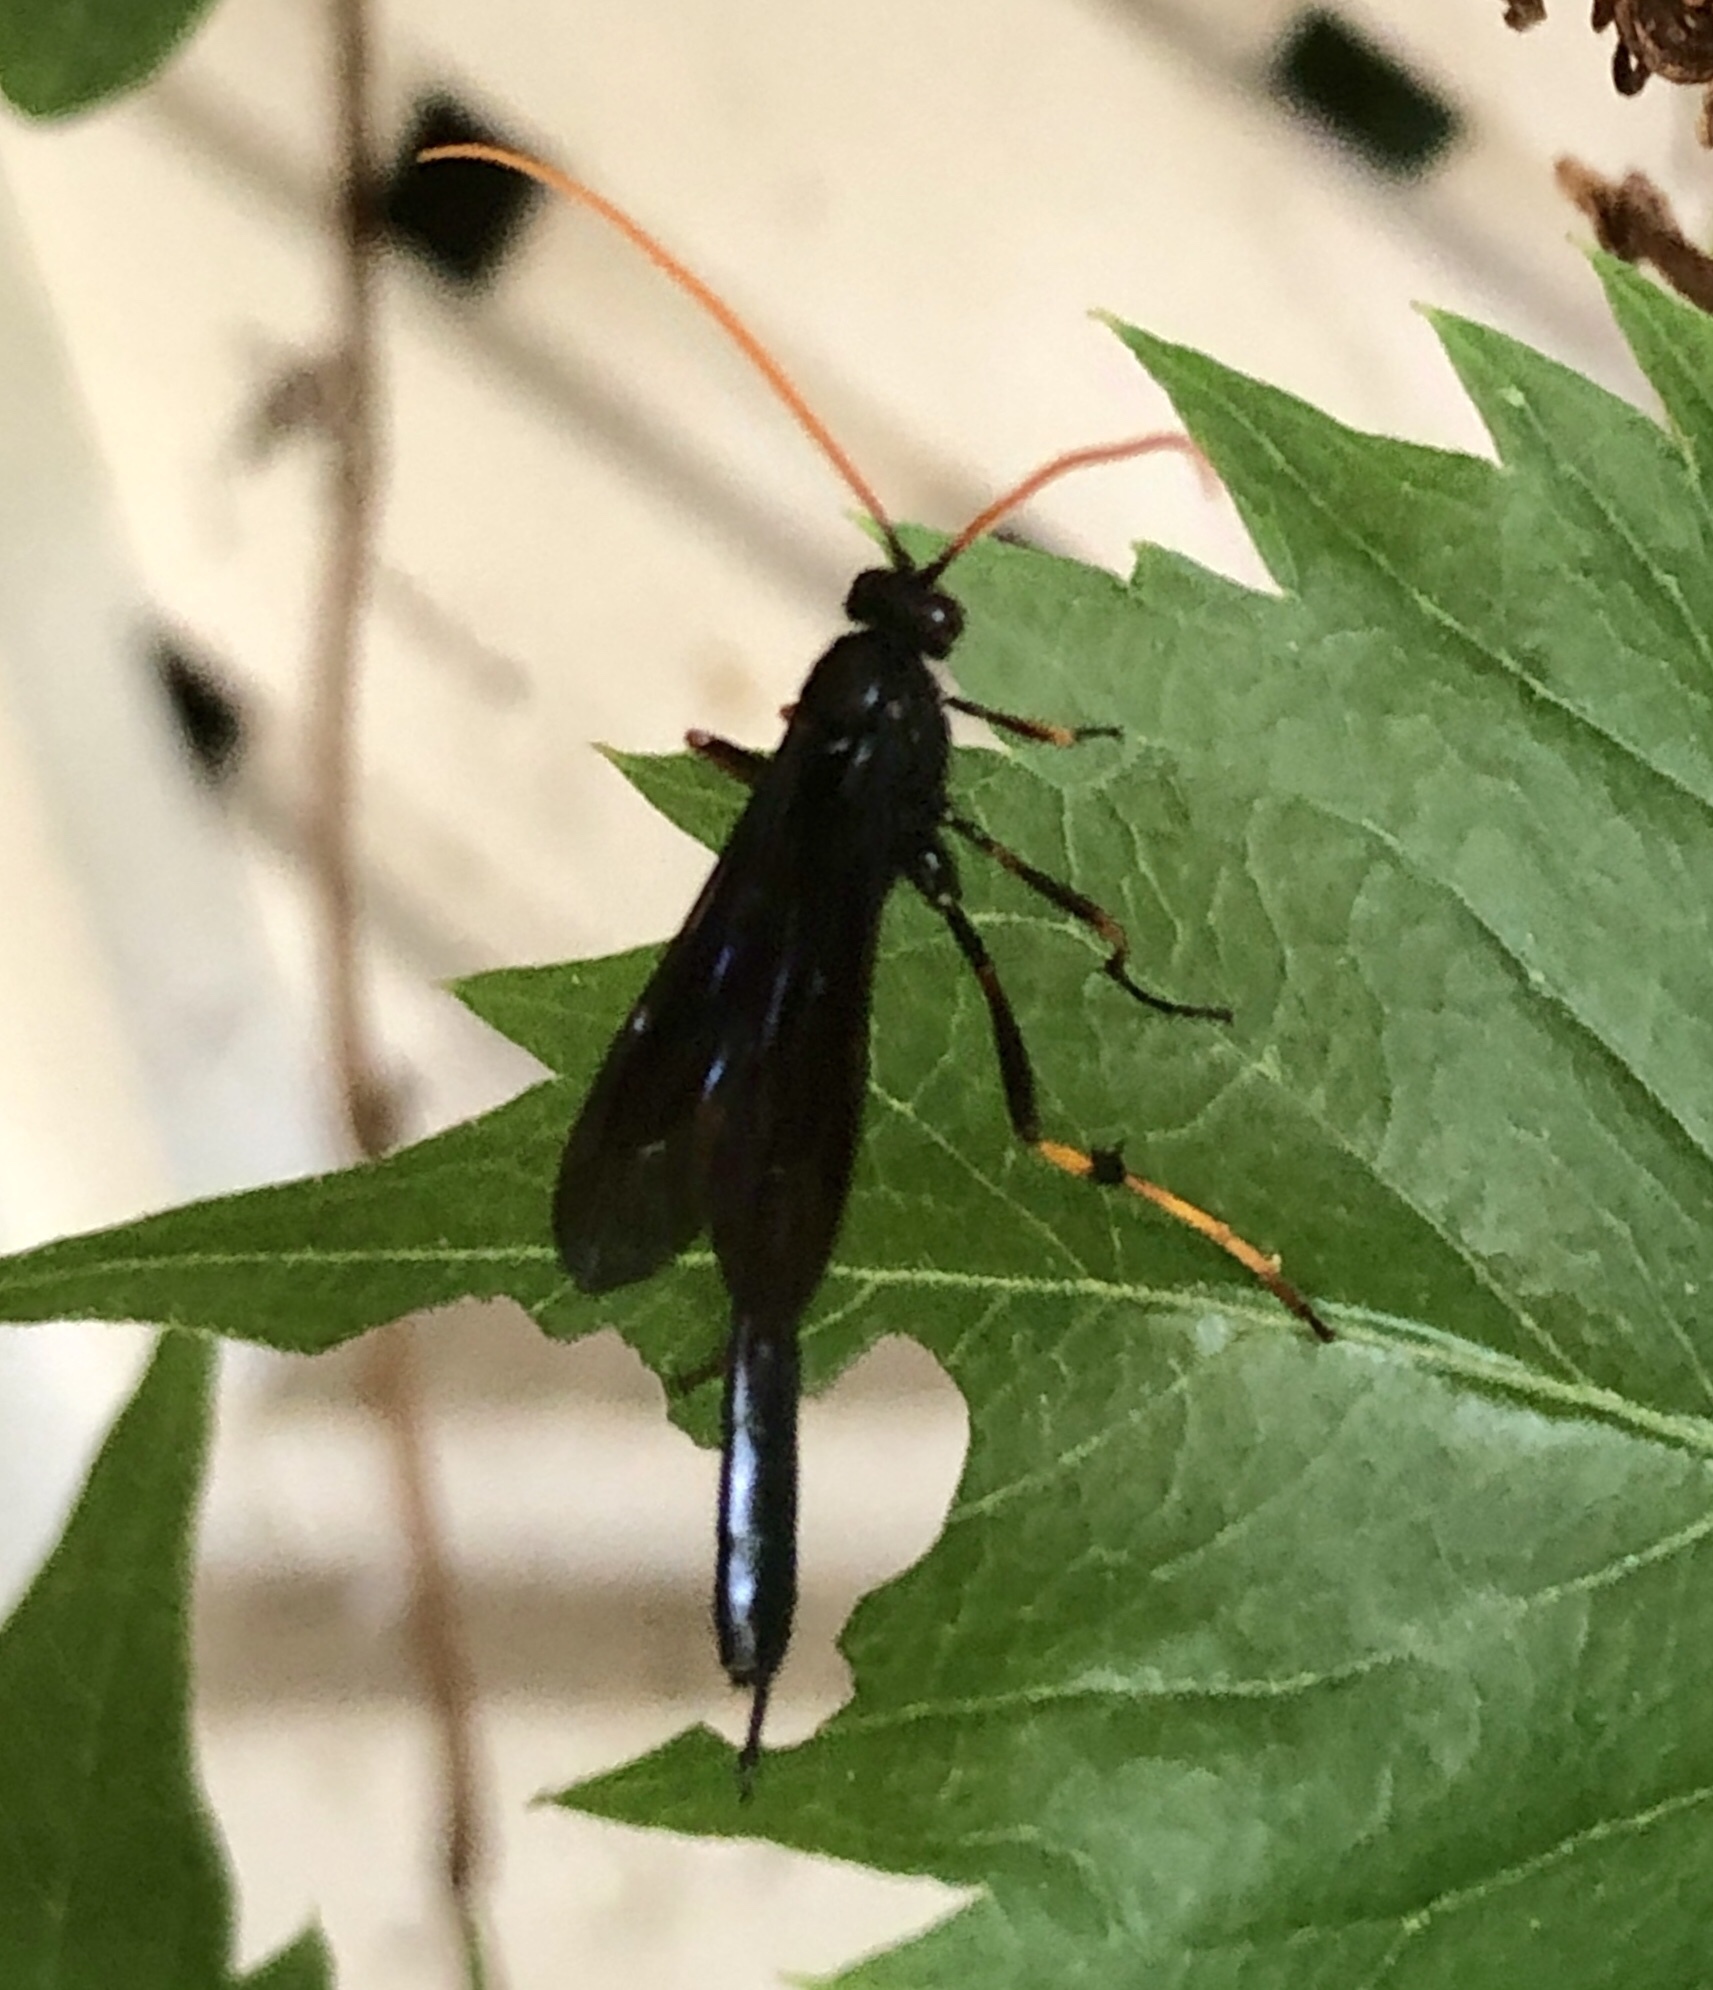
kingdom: Animalia
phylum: Arthropoda
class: Insecta
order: Hymenoptera
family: Ichneumonidae
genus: Therion
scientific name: Therion morio
